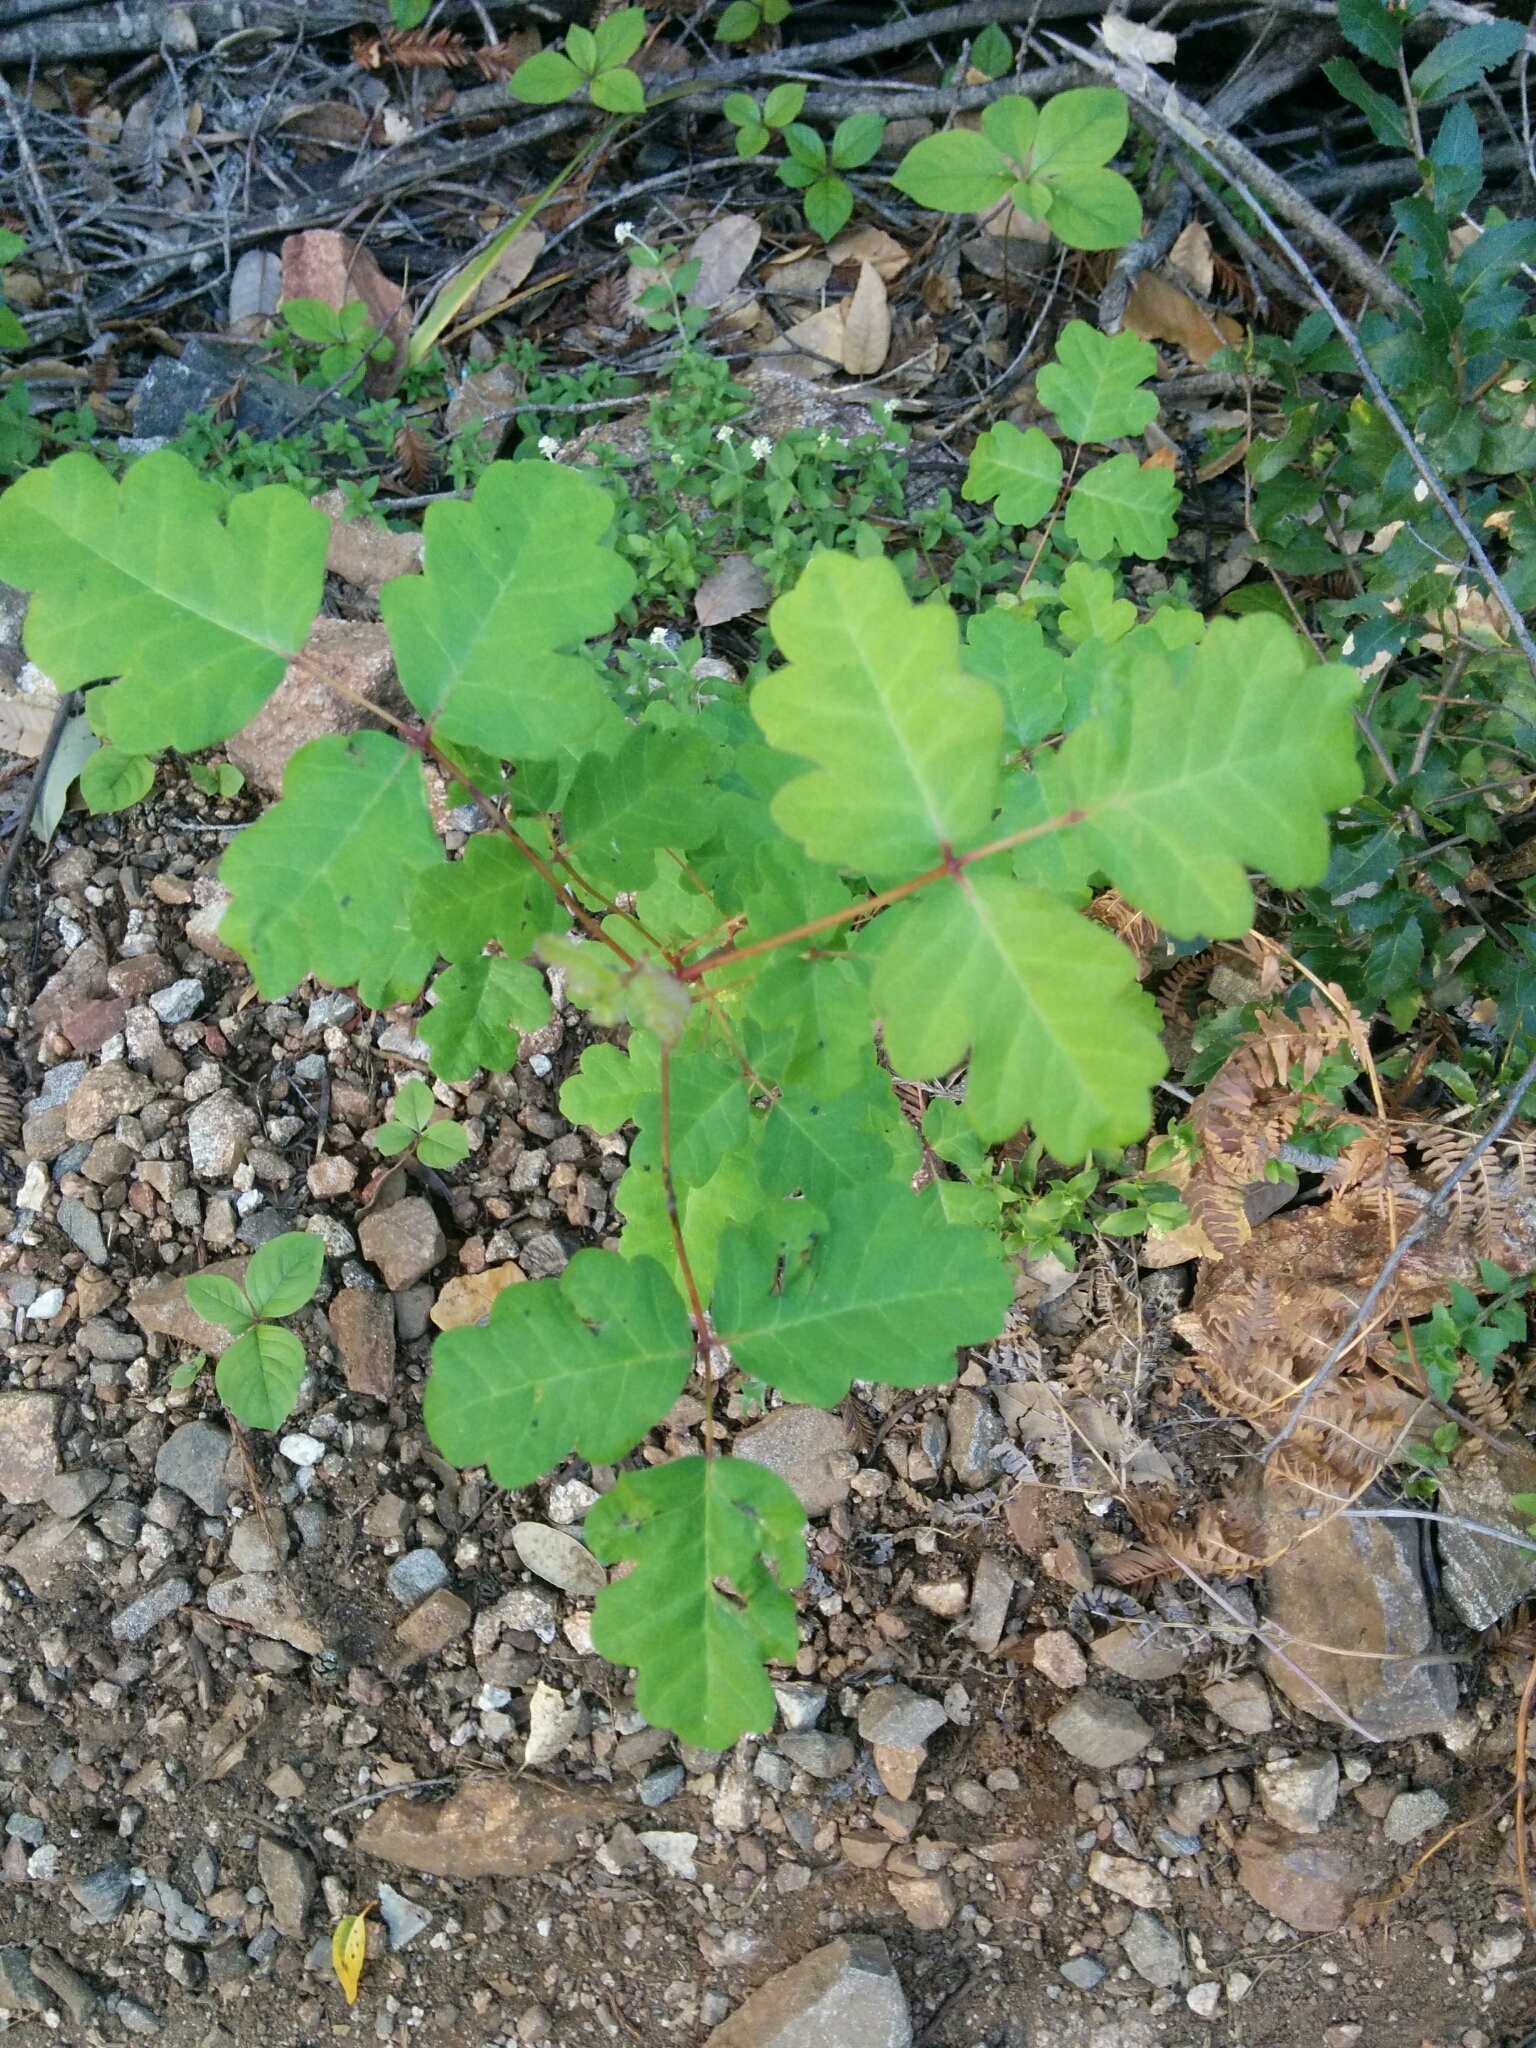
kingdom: Plantae
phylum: Tracheophyta
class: Magnoliopsida
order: Sapindales
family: Anacardiaceae
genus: Toxicodendron
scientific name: Toxicodendron diversilobum
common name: Pacific poison-oak
